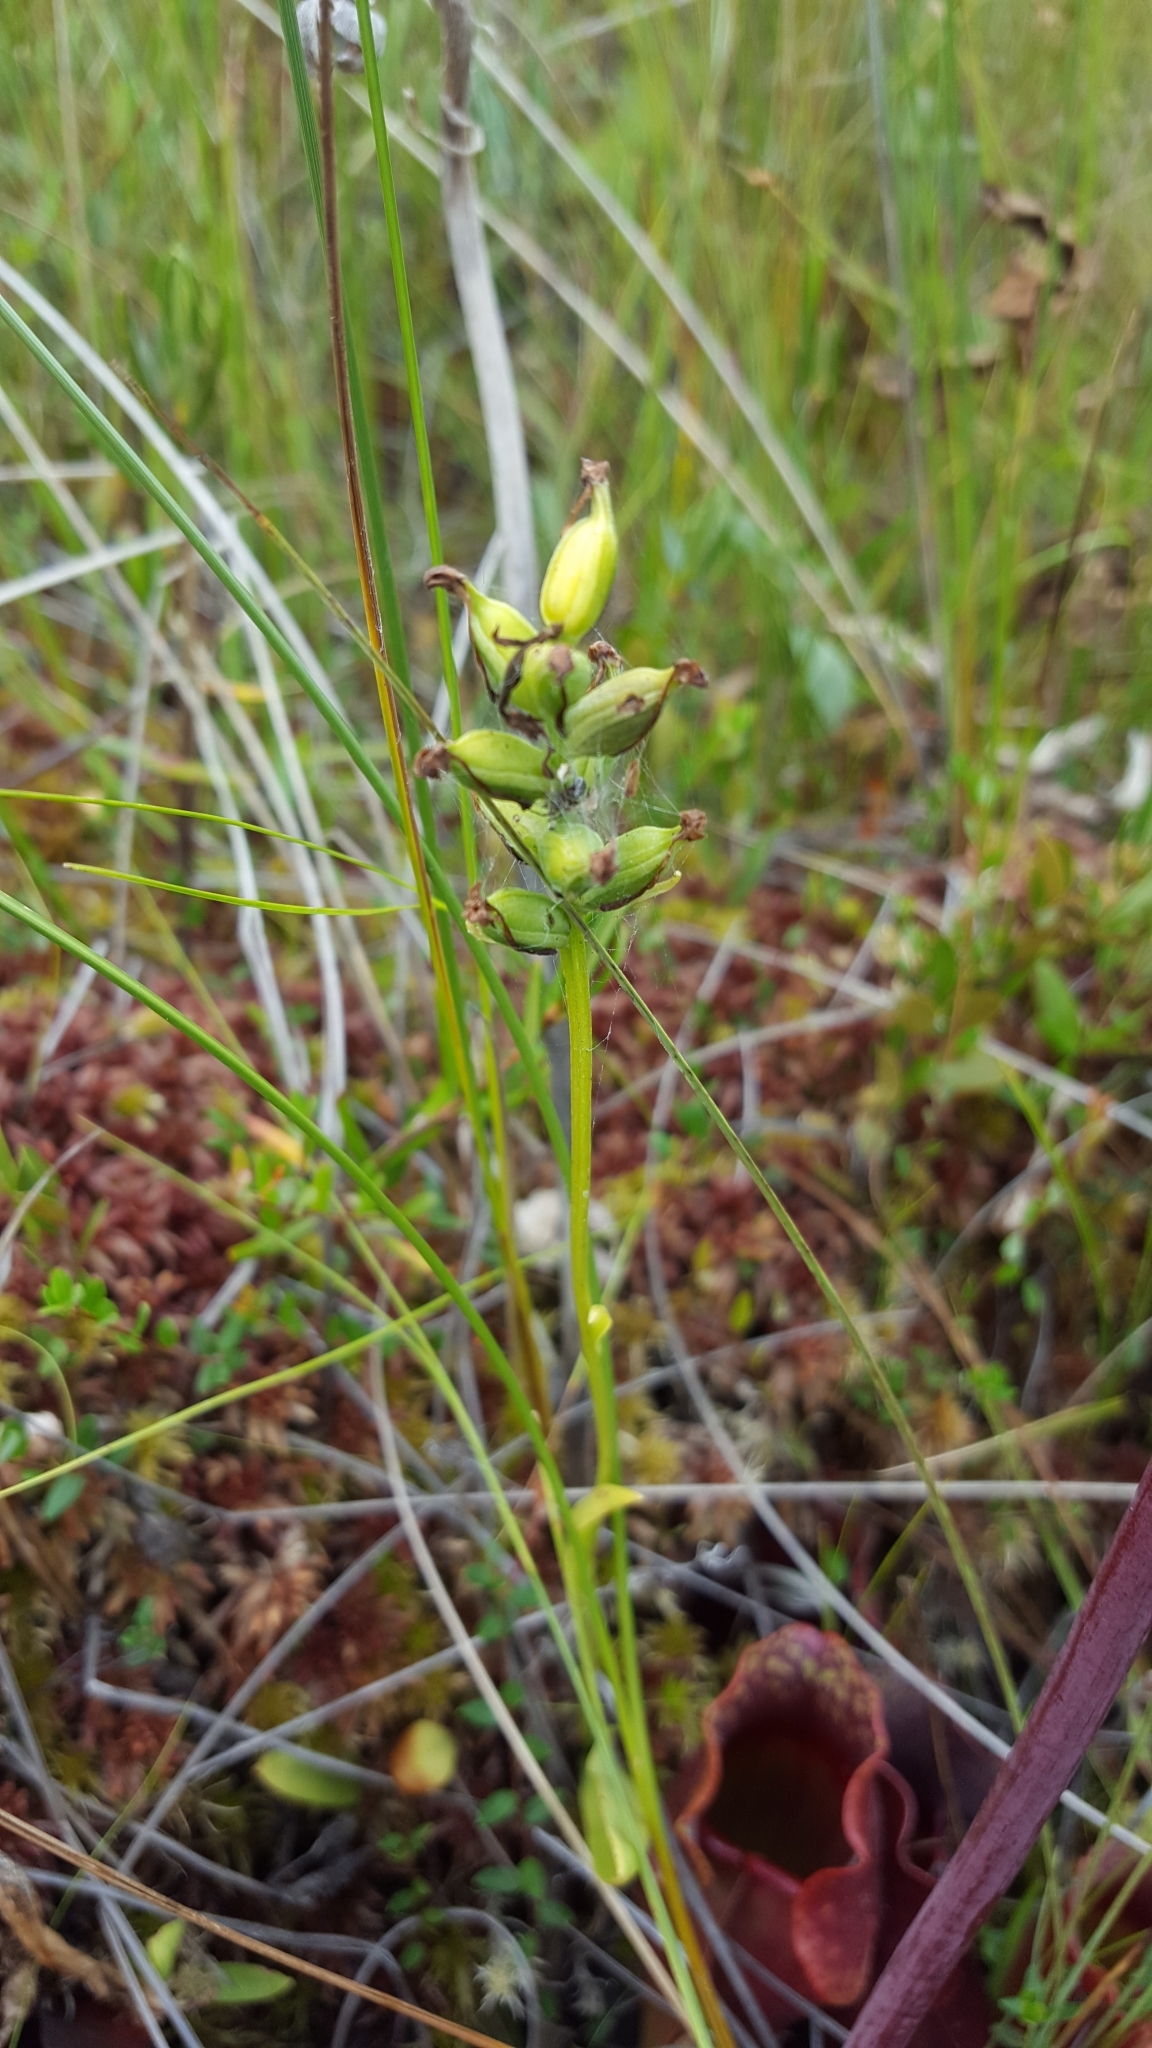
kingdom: Plantae
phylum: Tracheophyta
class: Liliopsida
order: Asparagales
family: Orchidaceae
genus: Platanthera
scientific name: Platanthera clavellata
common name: Club-spur orchid
